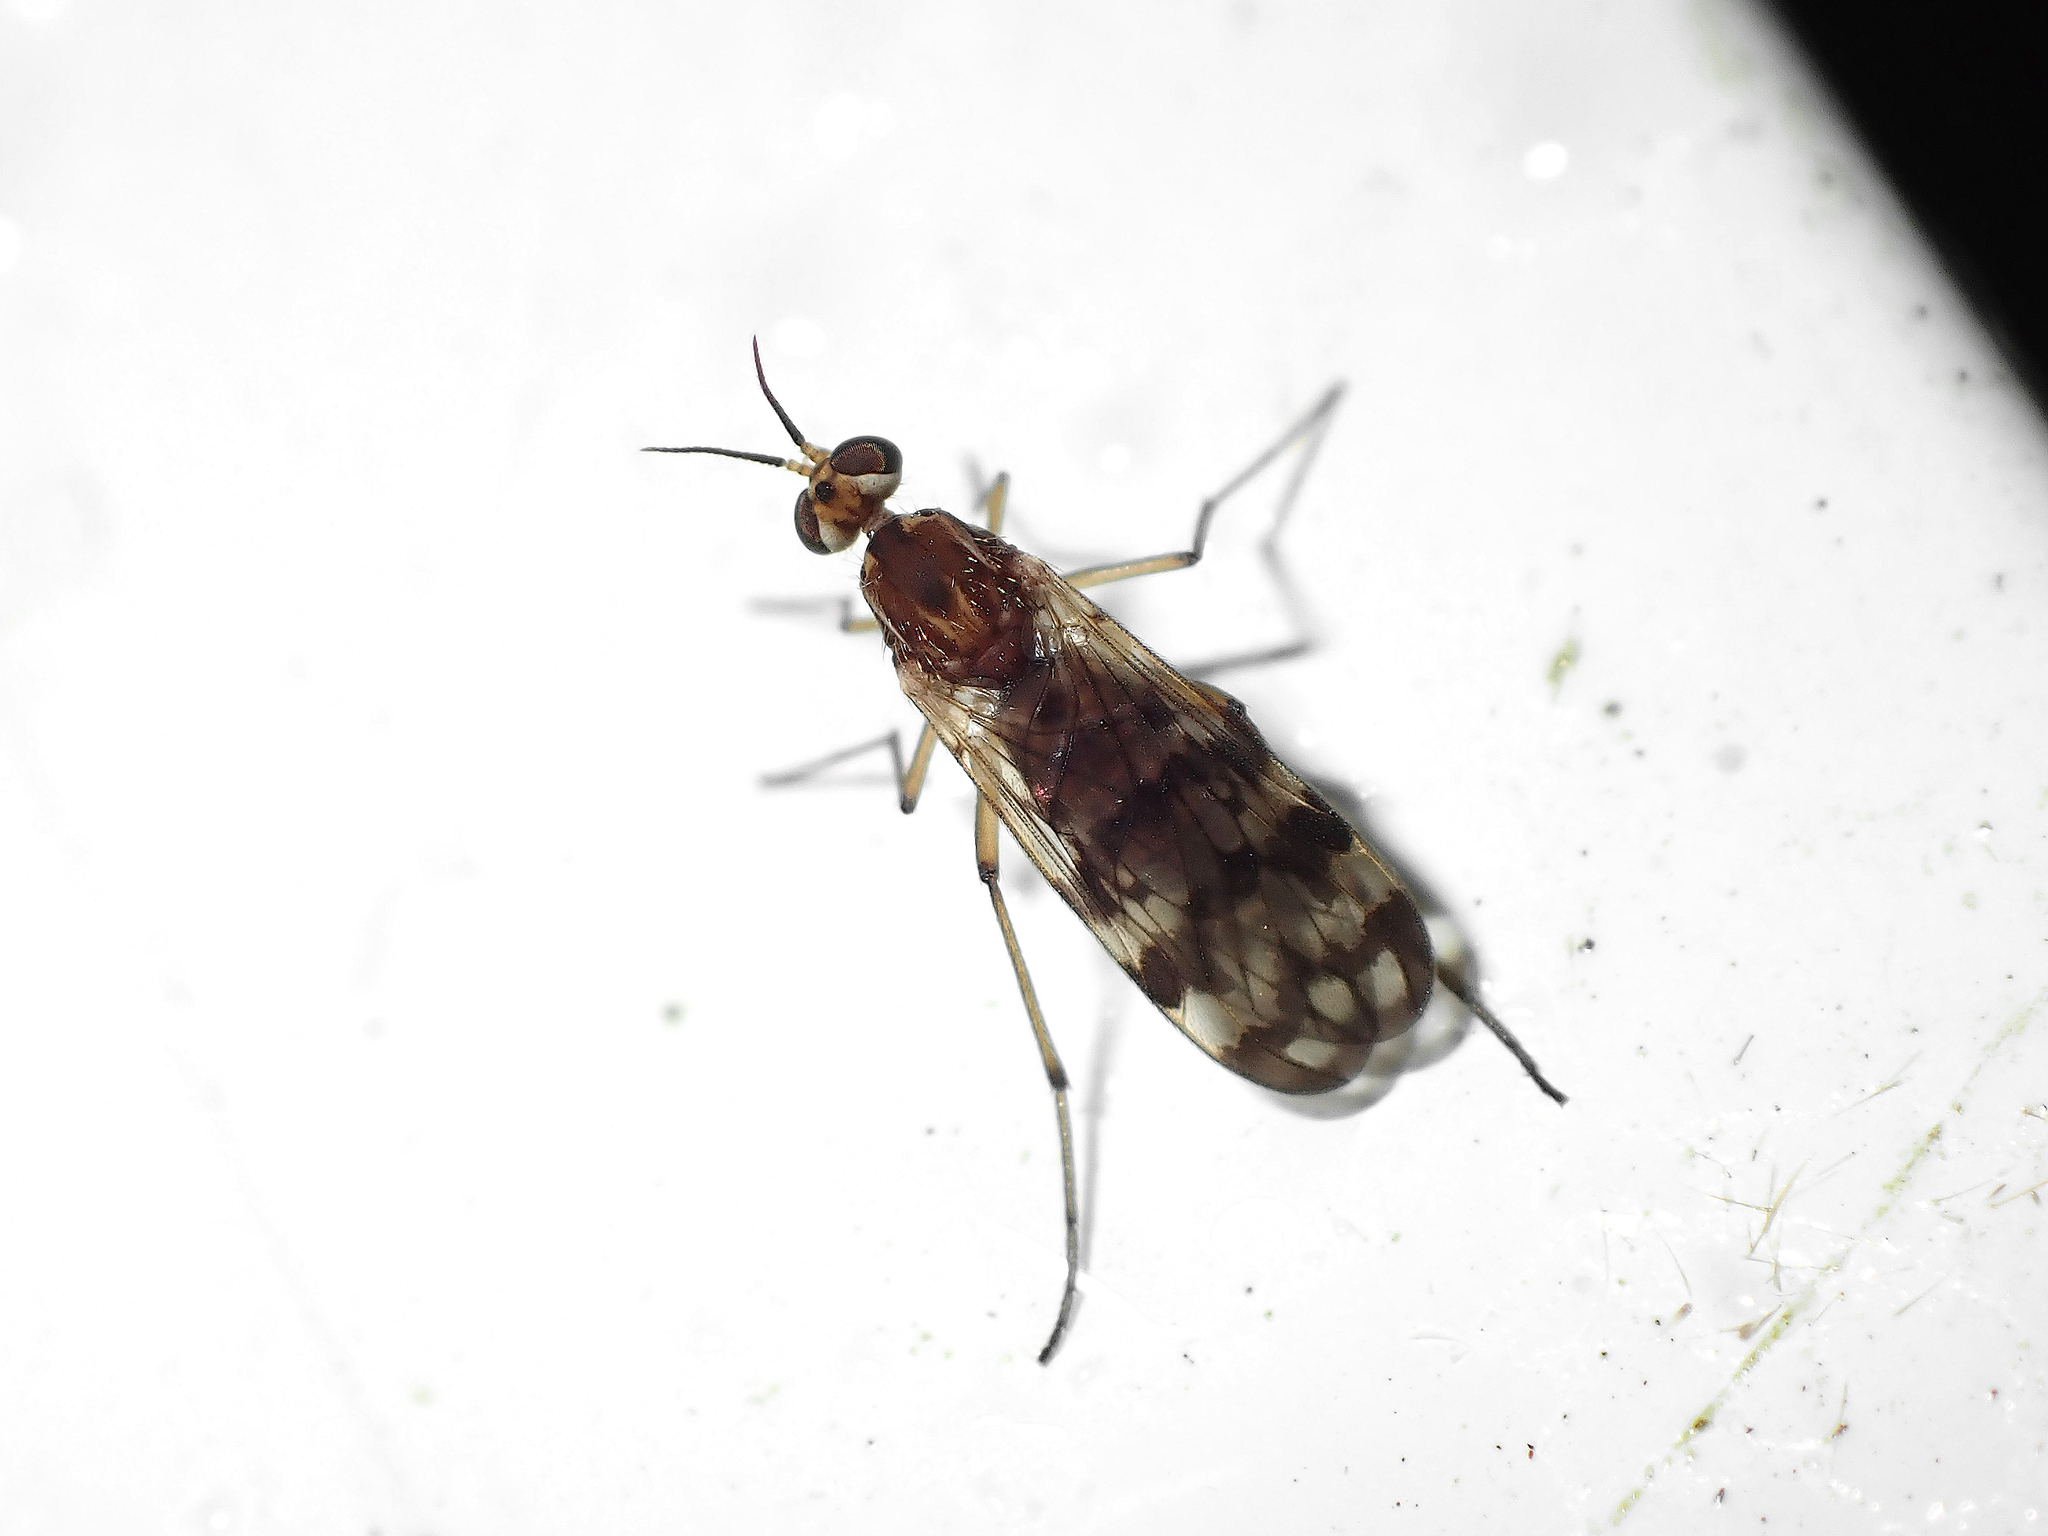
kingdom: Animalia
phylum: Arthropoda
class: Insecta
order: Diptera
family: Anisopodidae
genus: Sylvicola
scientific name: Sylvicola dubius
